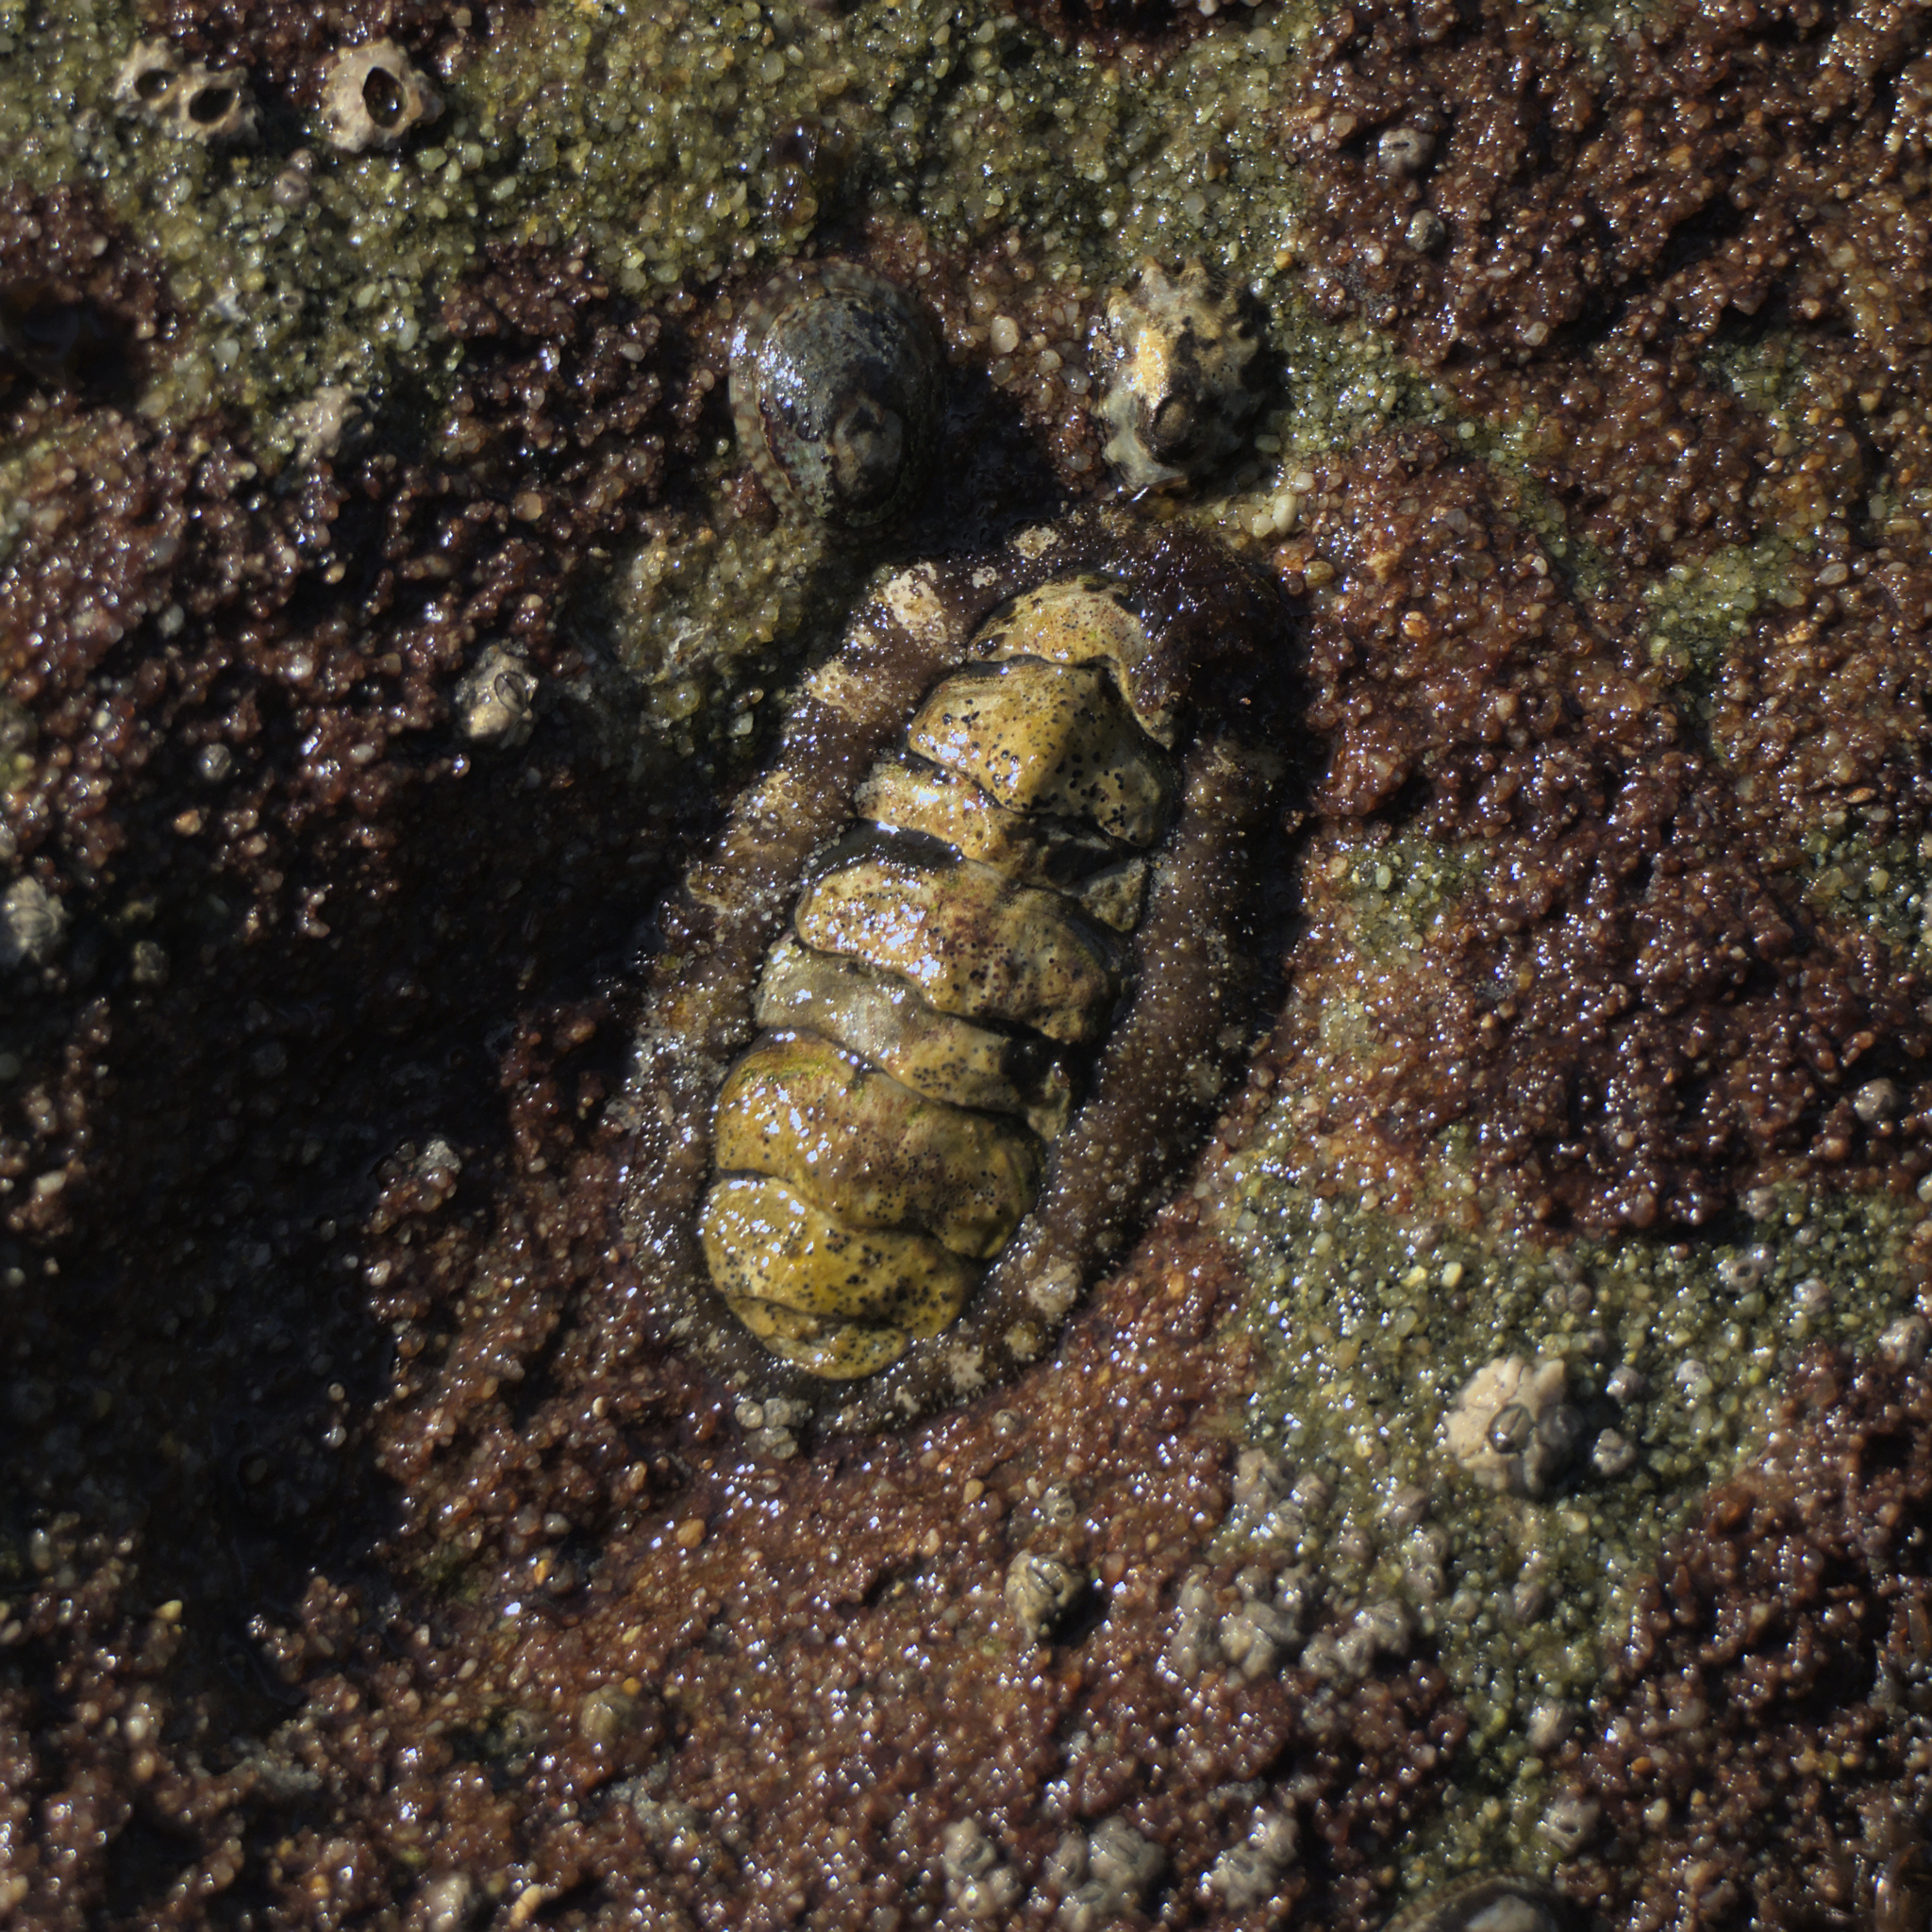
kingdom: Animalia
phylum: Mollusca
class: Polyplacophora
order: Chitonida
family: Tonicellidae
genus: Nuttallina
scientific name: Nuttallina californica
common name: California nuttall chiton
